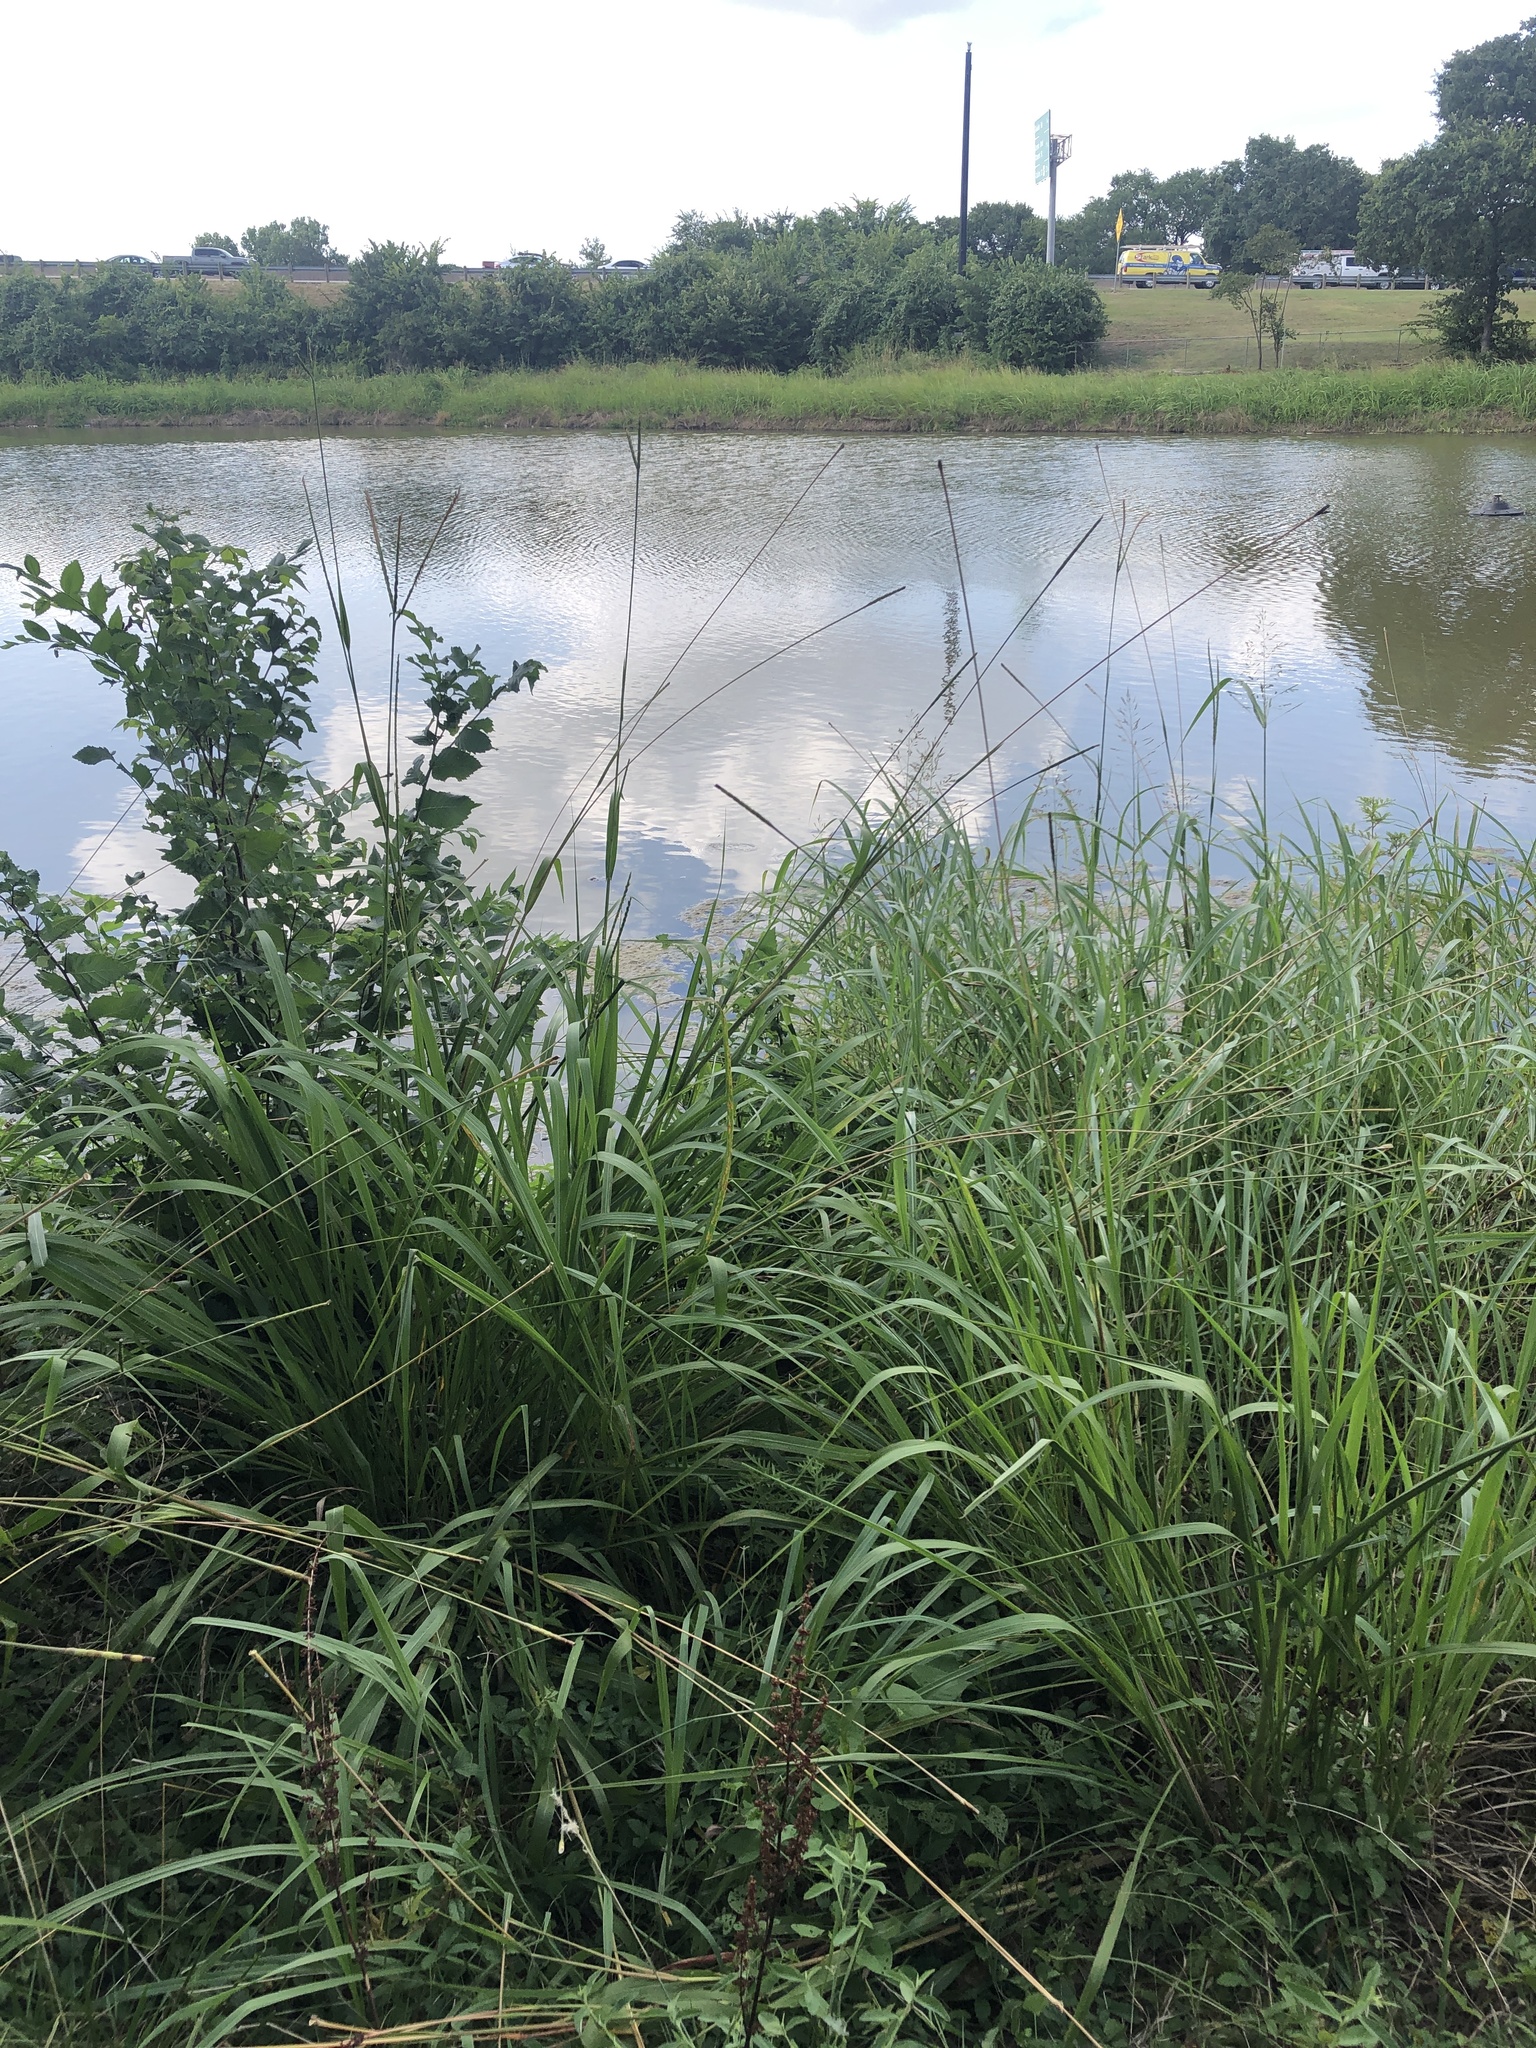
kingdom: Plantae
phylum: Tracheophyta
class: Liliopsida
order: Poales
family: Poaceae
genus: Tripsacum
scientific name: Tripsacum dactyloides
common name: Buffalo-grass
